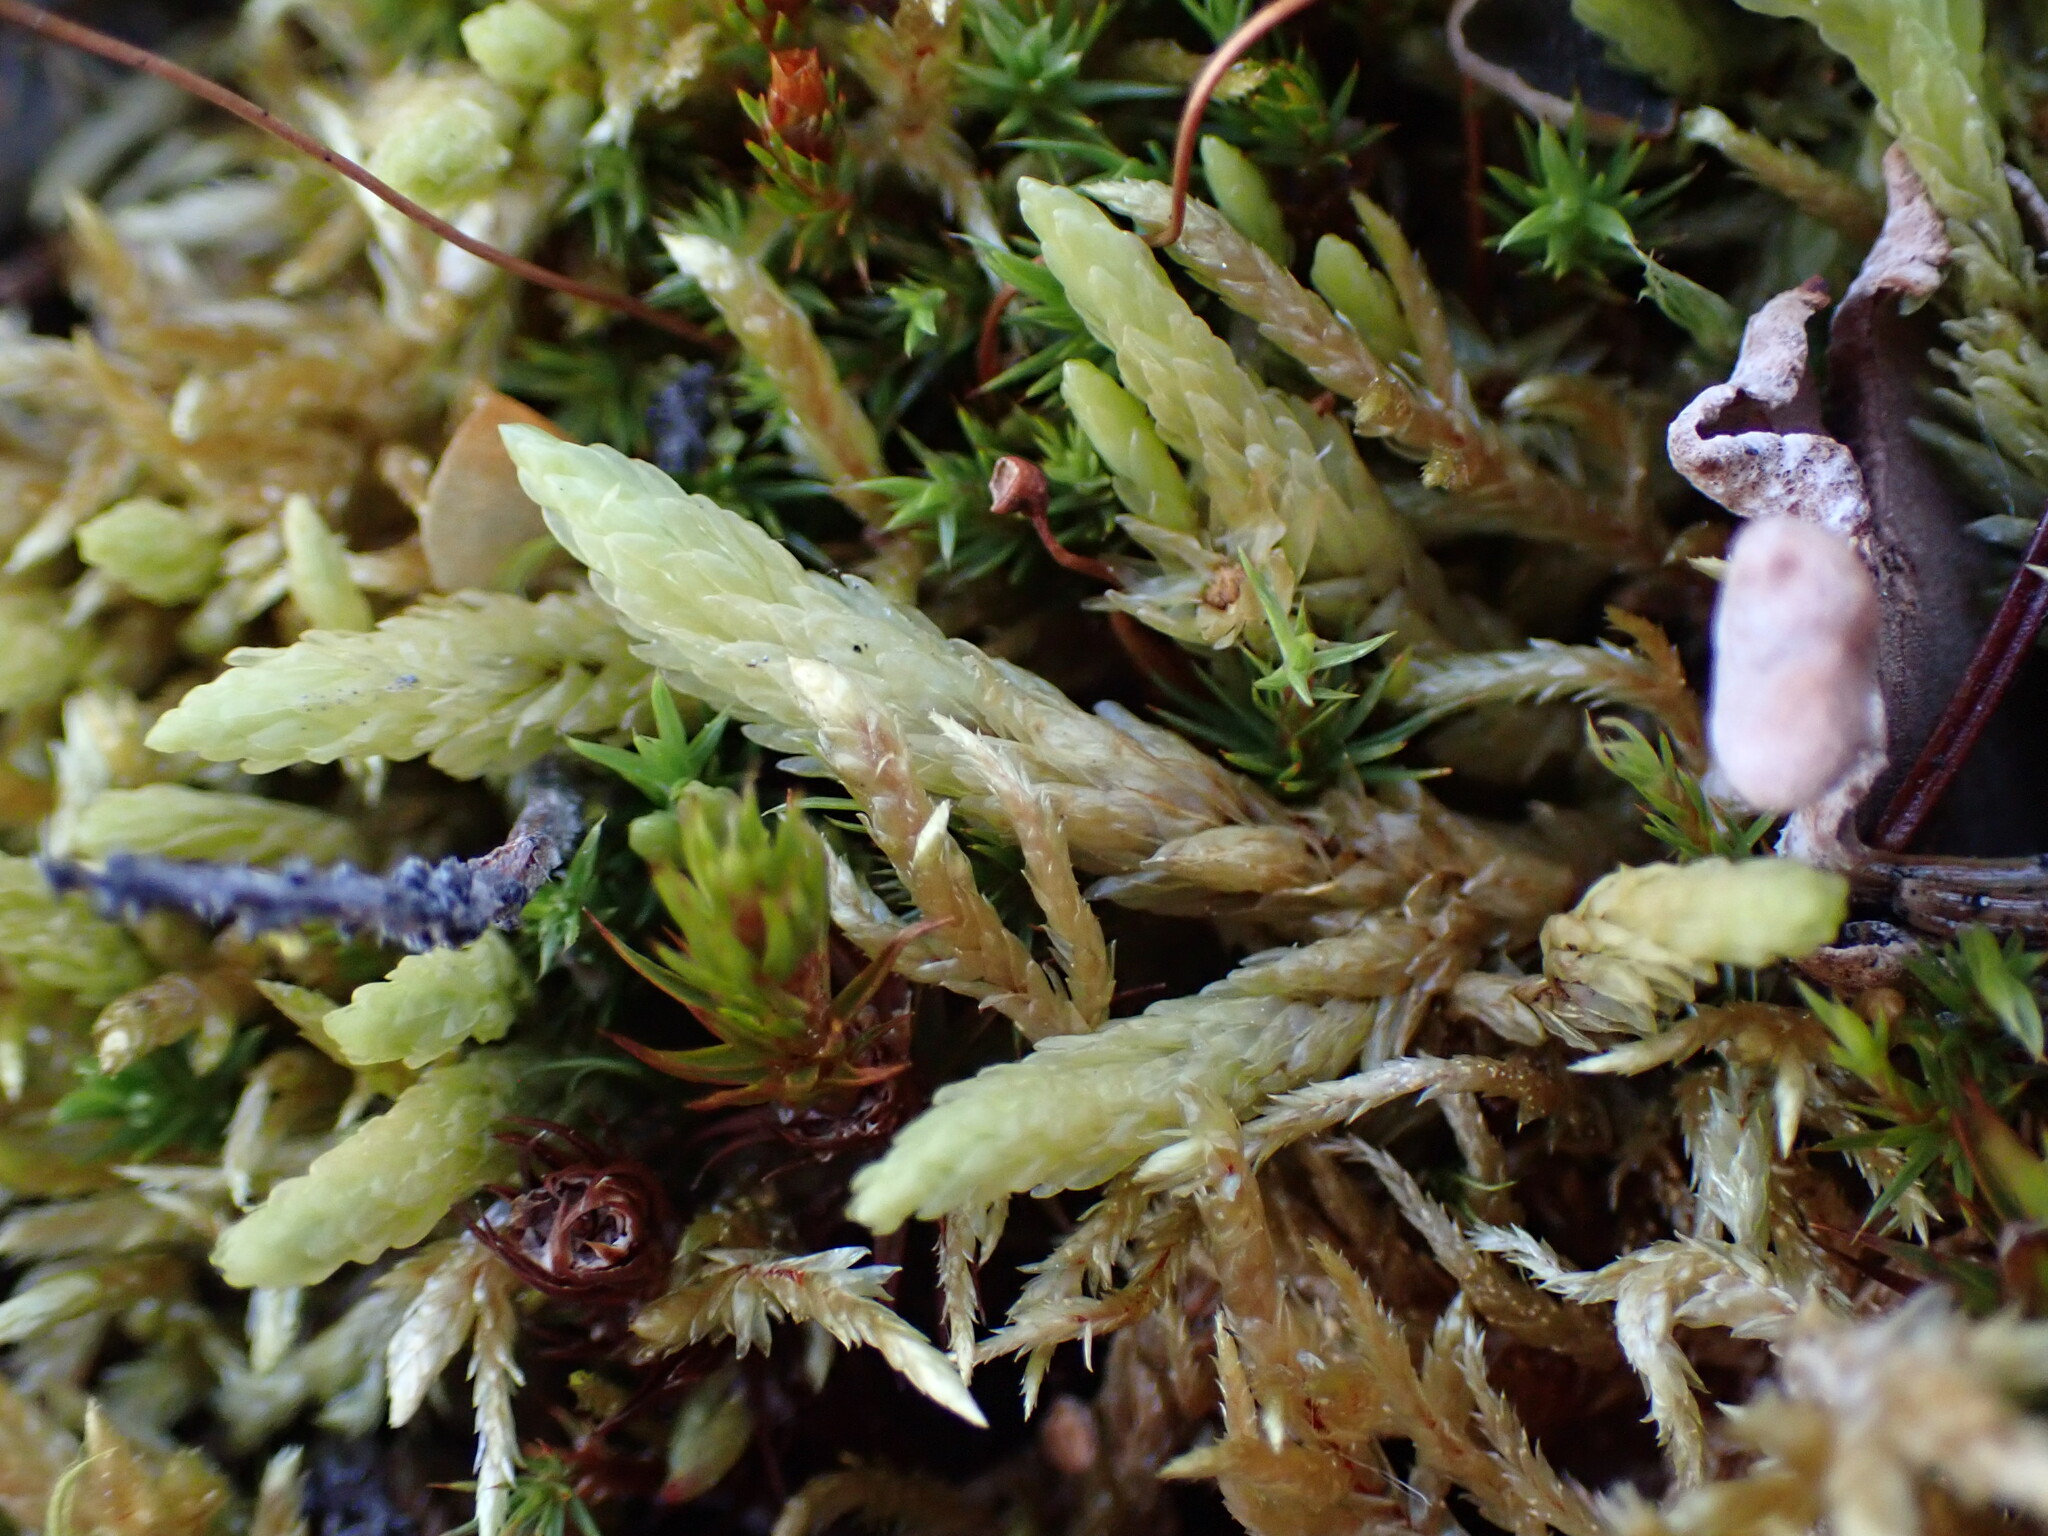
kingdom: Plantae
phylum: Bryophyta
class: Bryopsida
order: Aulacomniales
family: Aulacomniaceae
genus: Aulacomnium
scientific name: Aulacomnium turgidum
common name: Mountain groove moss
